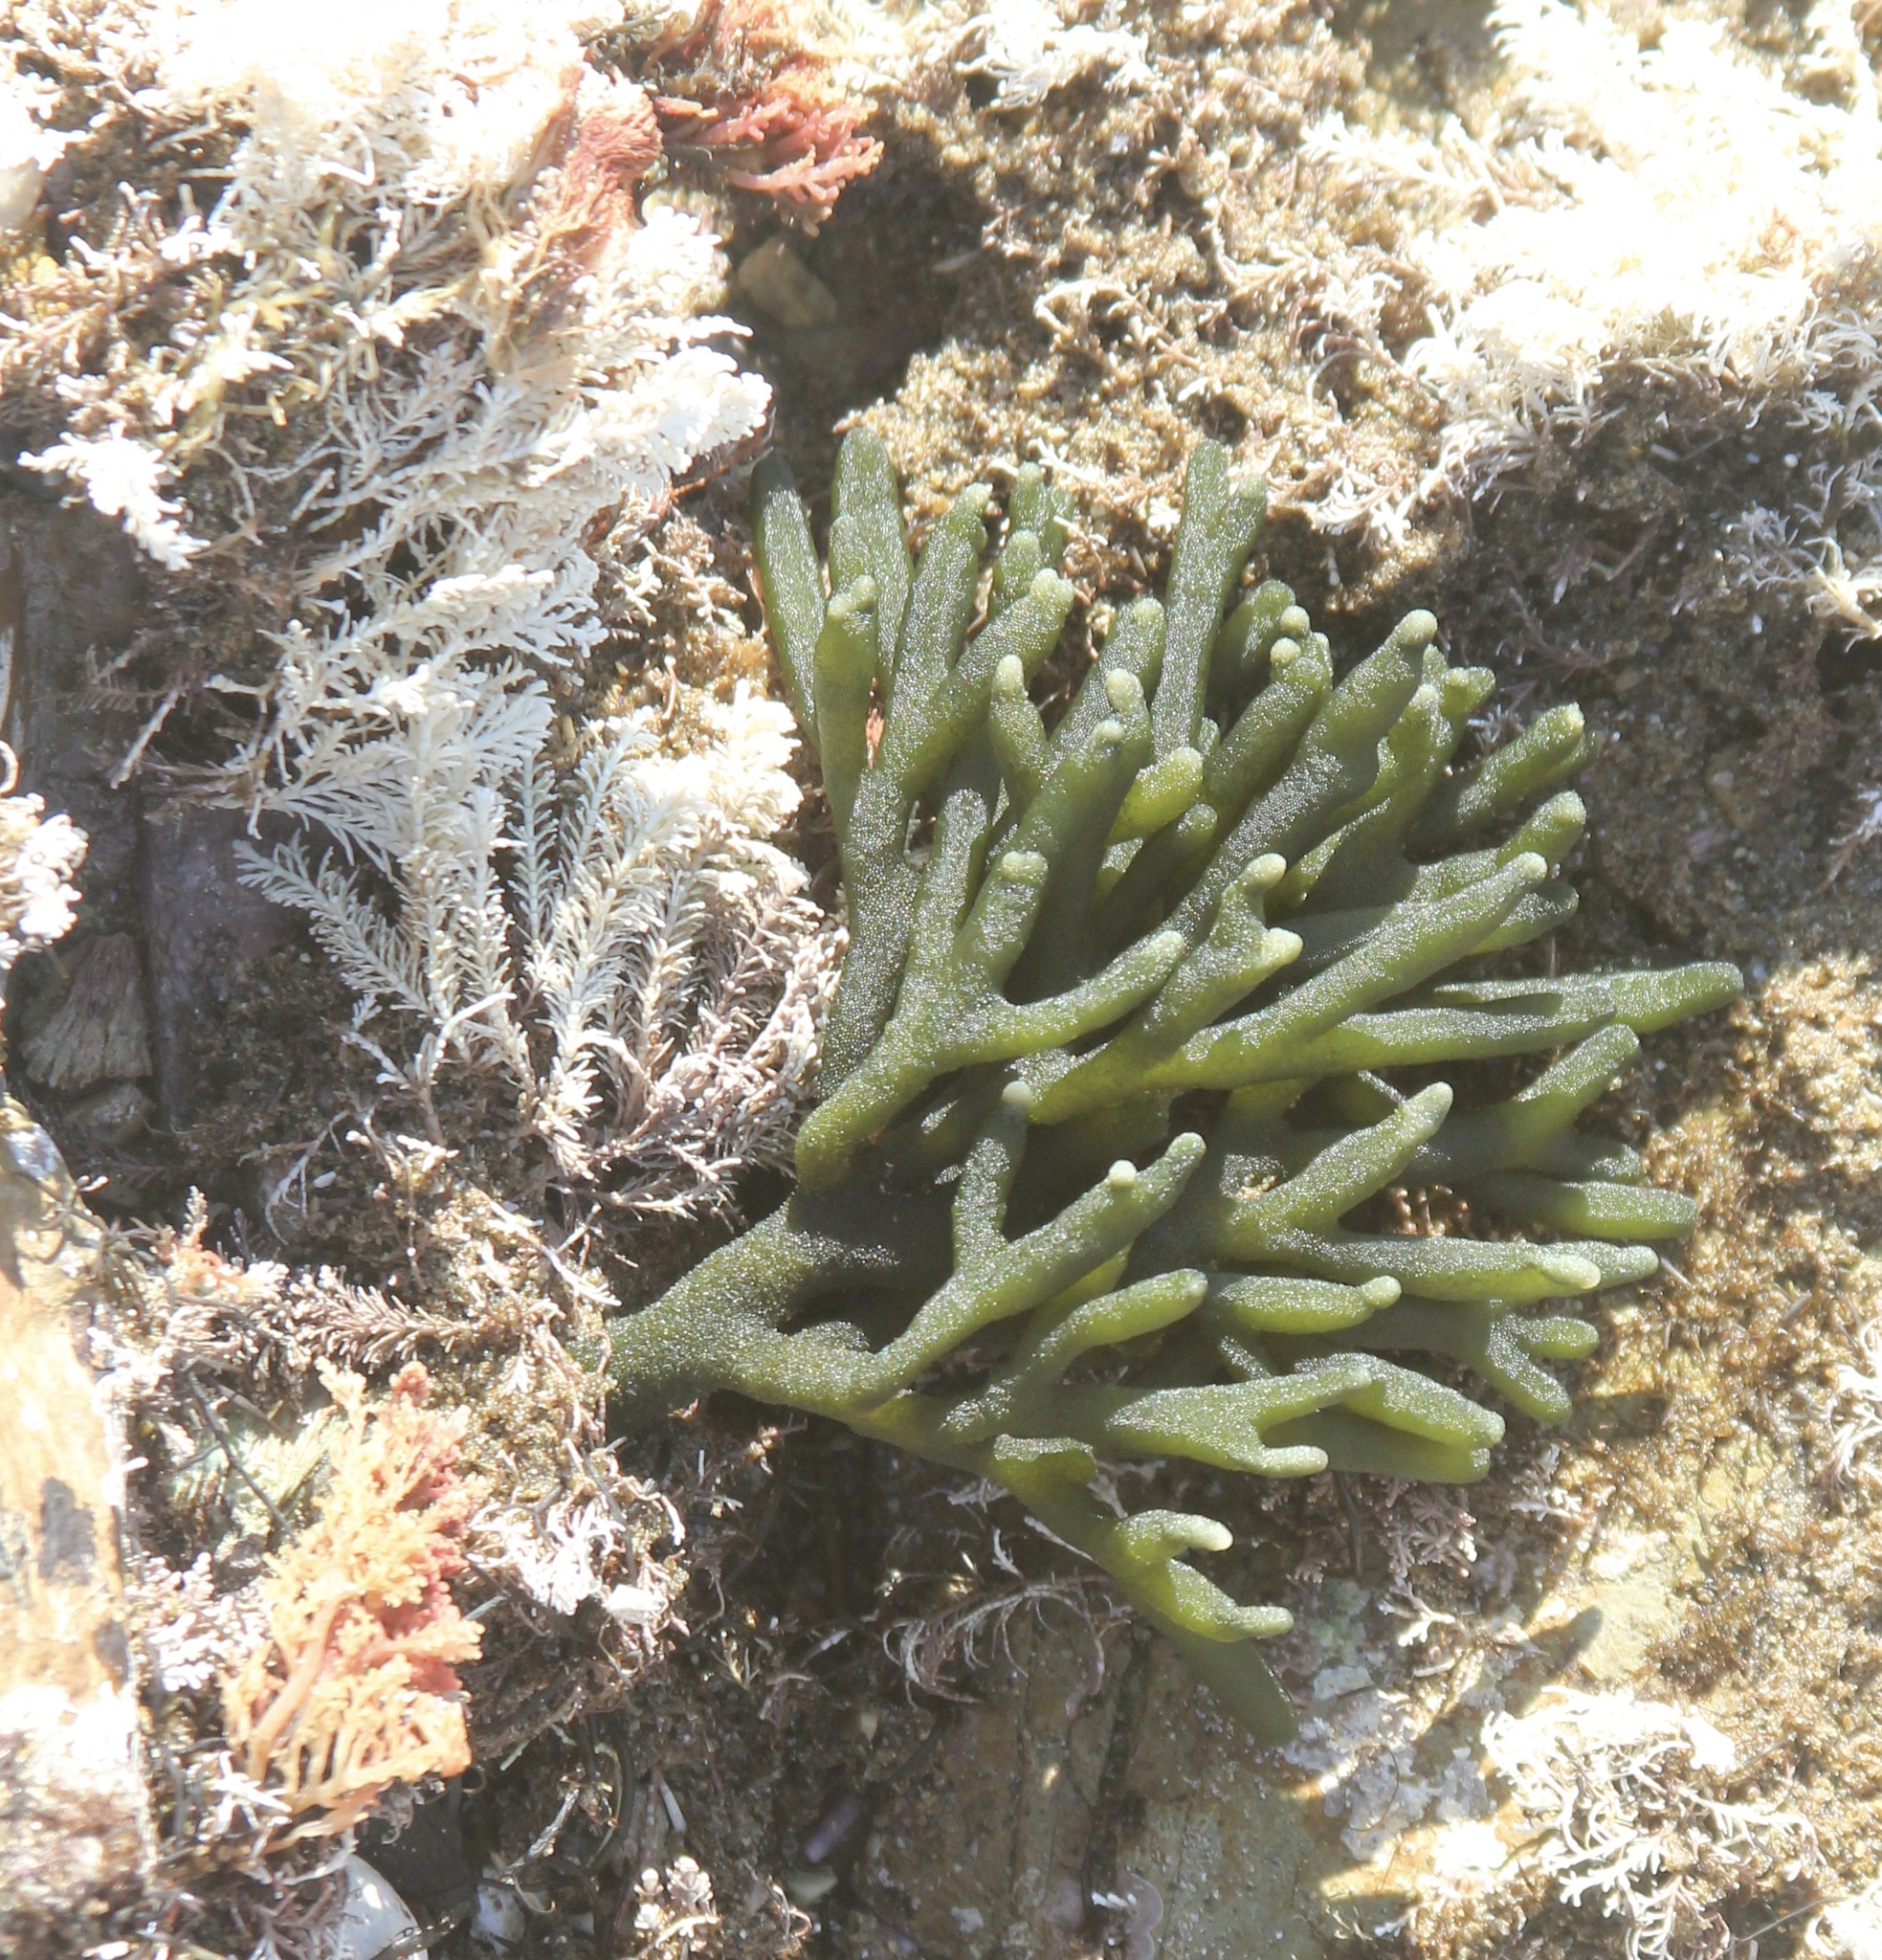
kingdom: Plantae
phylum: Chlorophyta
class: Ulvophyceae
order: Bryopsidales
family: Codiaceae
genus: Codium
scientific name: Codium fragile
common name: Dead man's fingers
